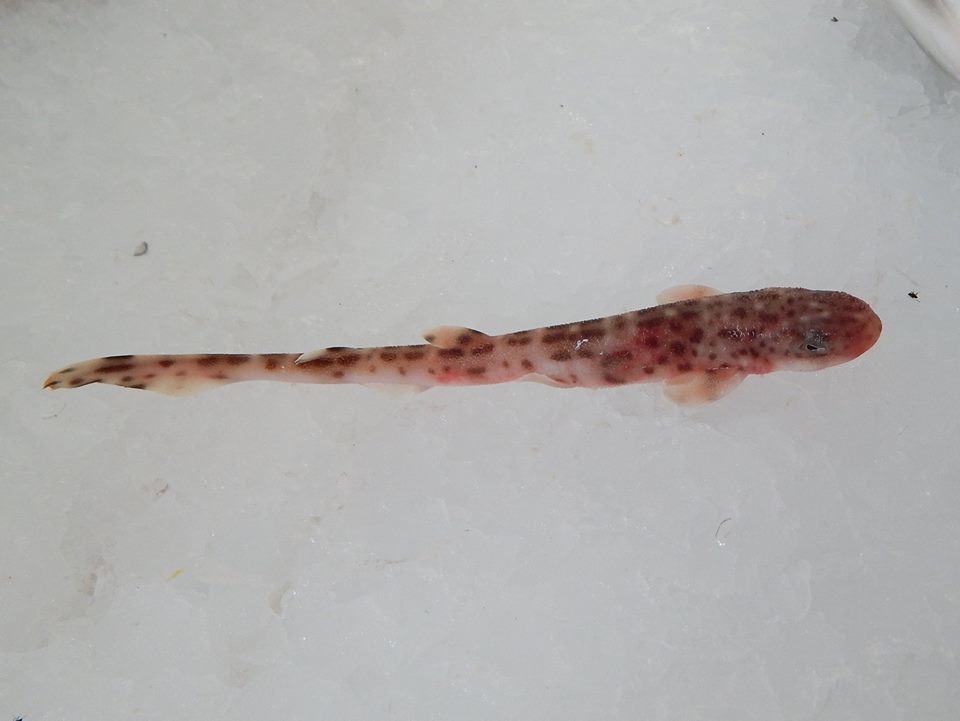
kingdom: Animalia
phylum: Chordata
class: Elasmobranchii
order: Carcharhiniformes
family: Scyliorhinidae
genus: Scyliorhinus
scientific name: Scyliorhinus canicula
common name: Lesser spotted dogfish
